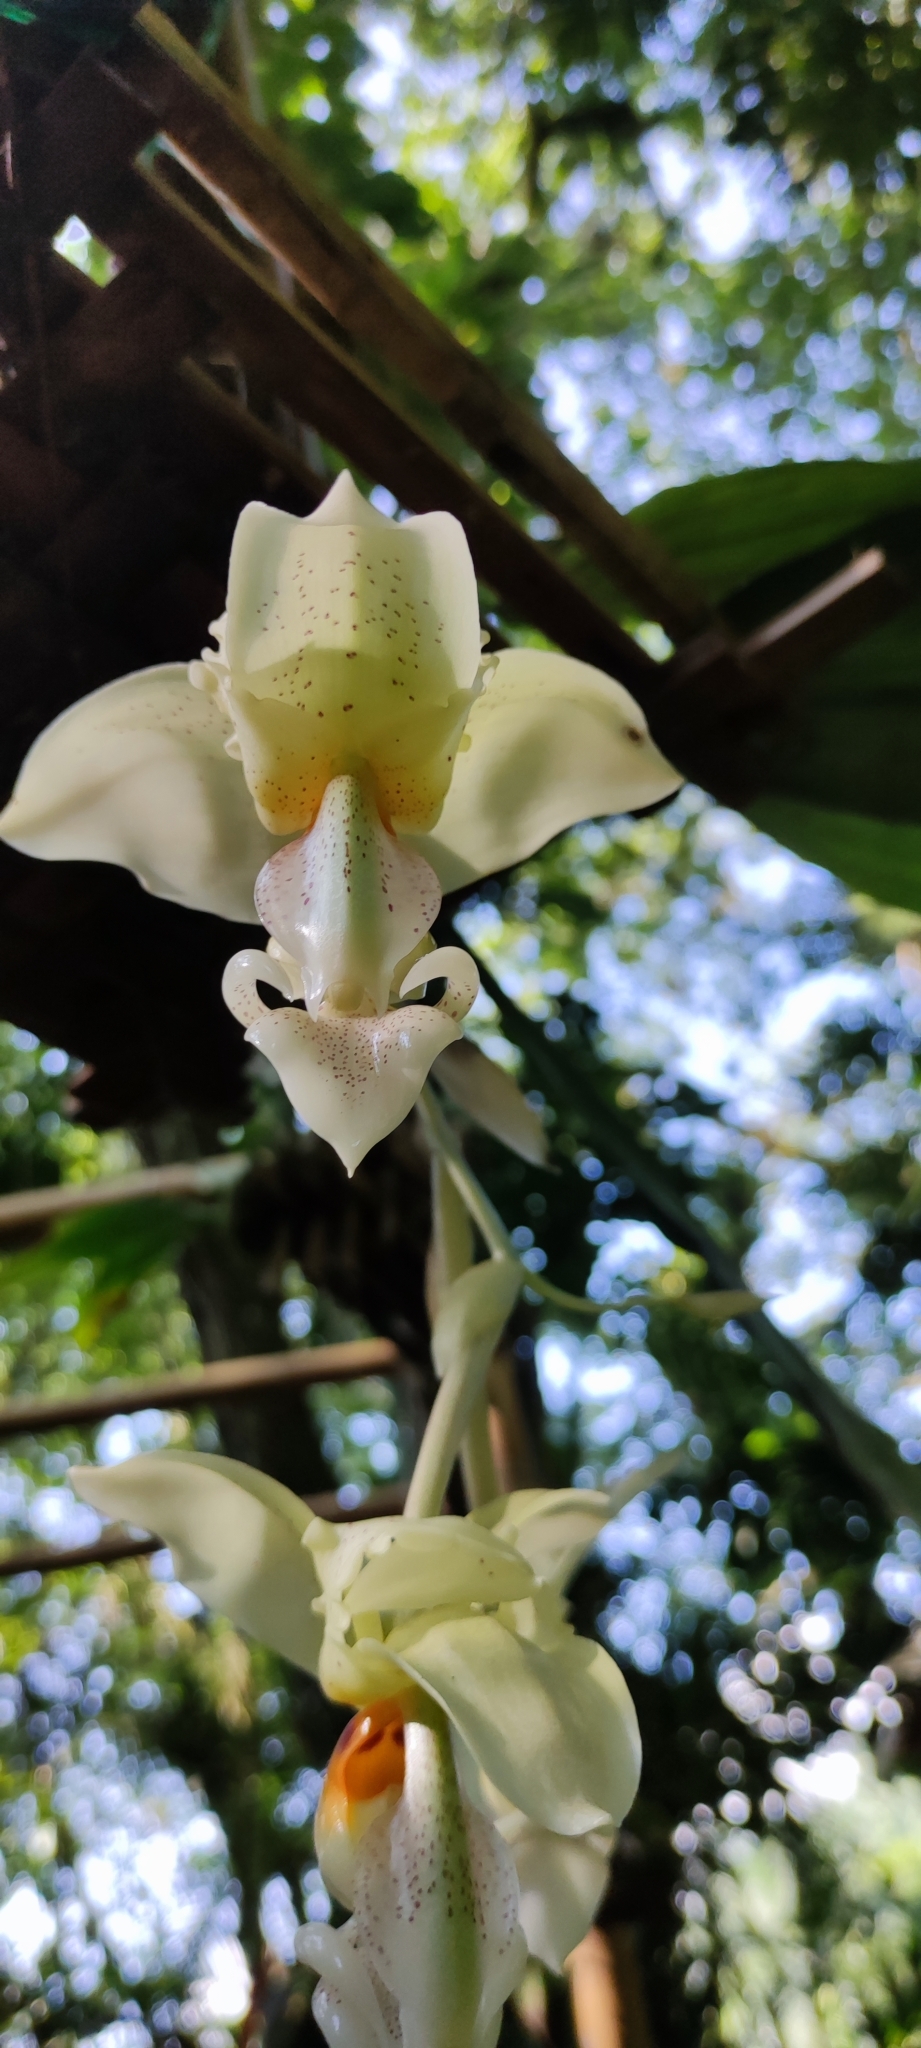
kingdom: Plantae
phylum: Tracheophyta
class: Liliopsida
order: Asparagales
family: Orchidaceae
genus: Stanhopea
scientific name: Stanhopea ruckeri
